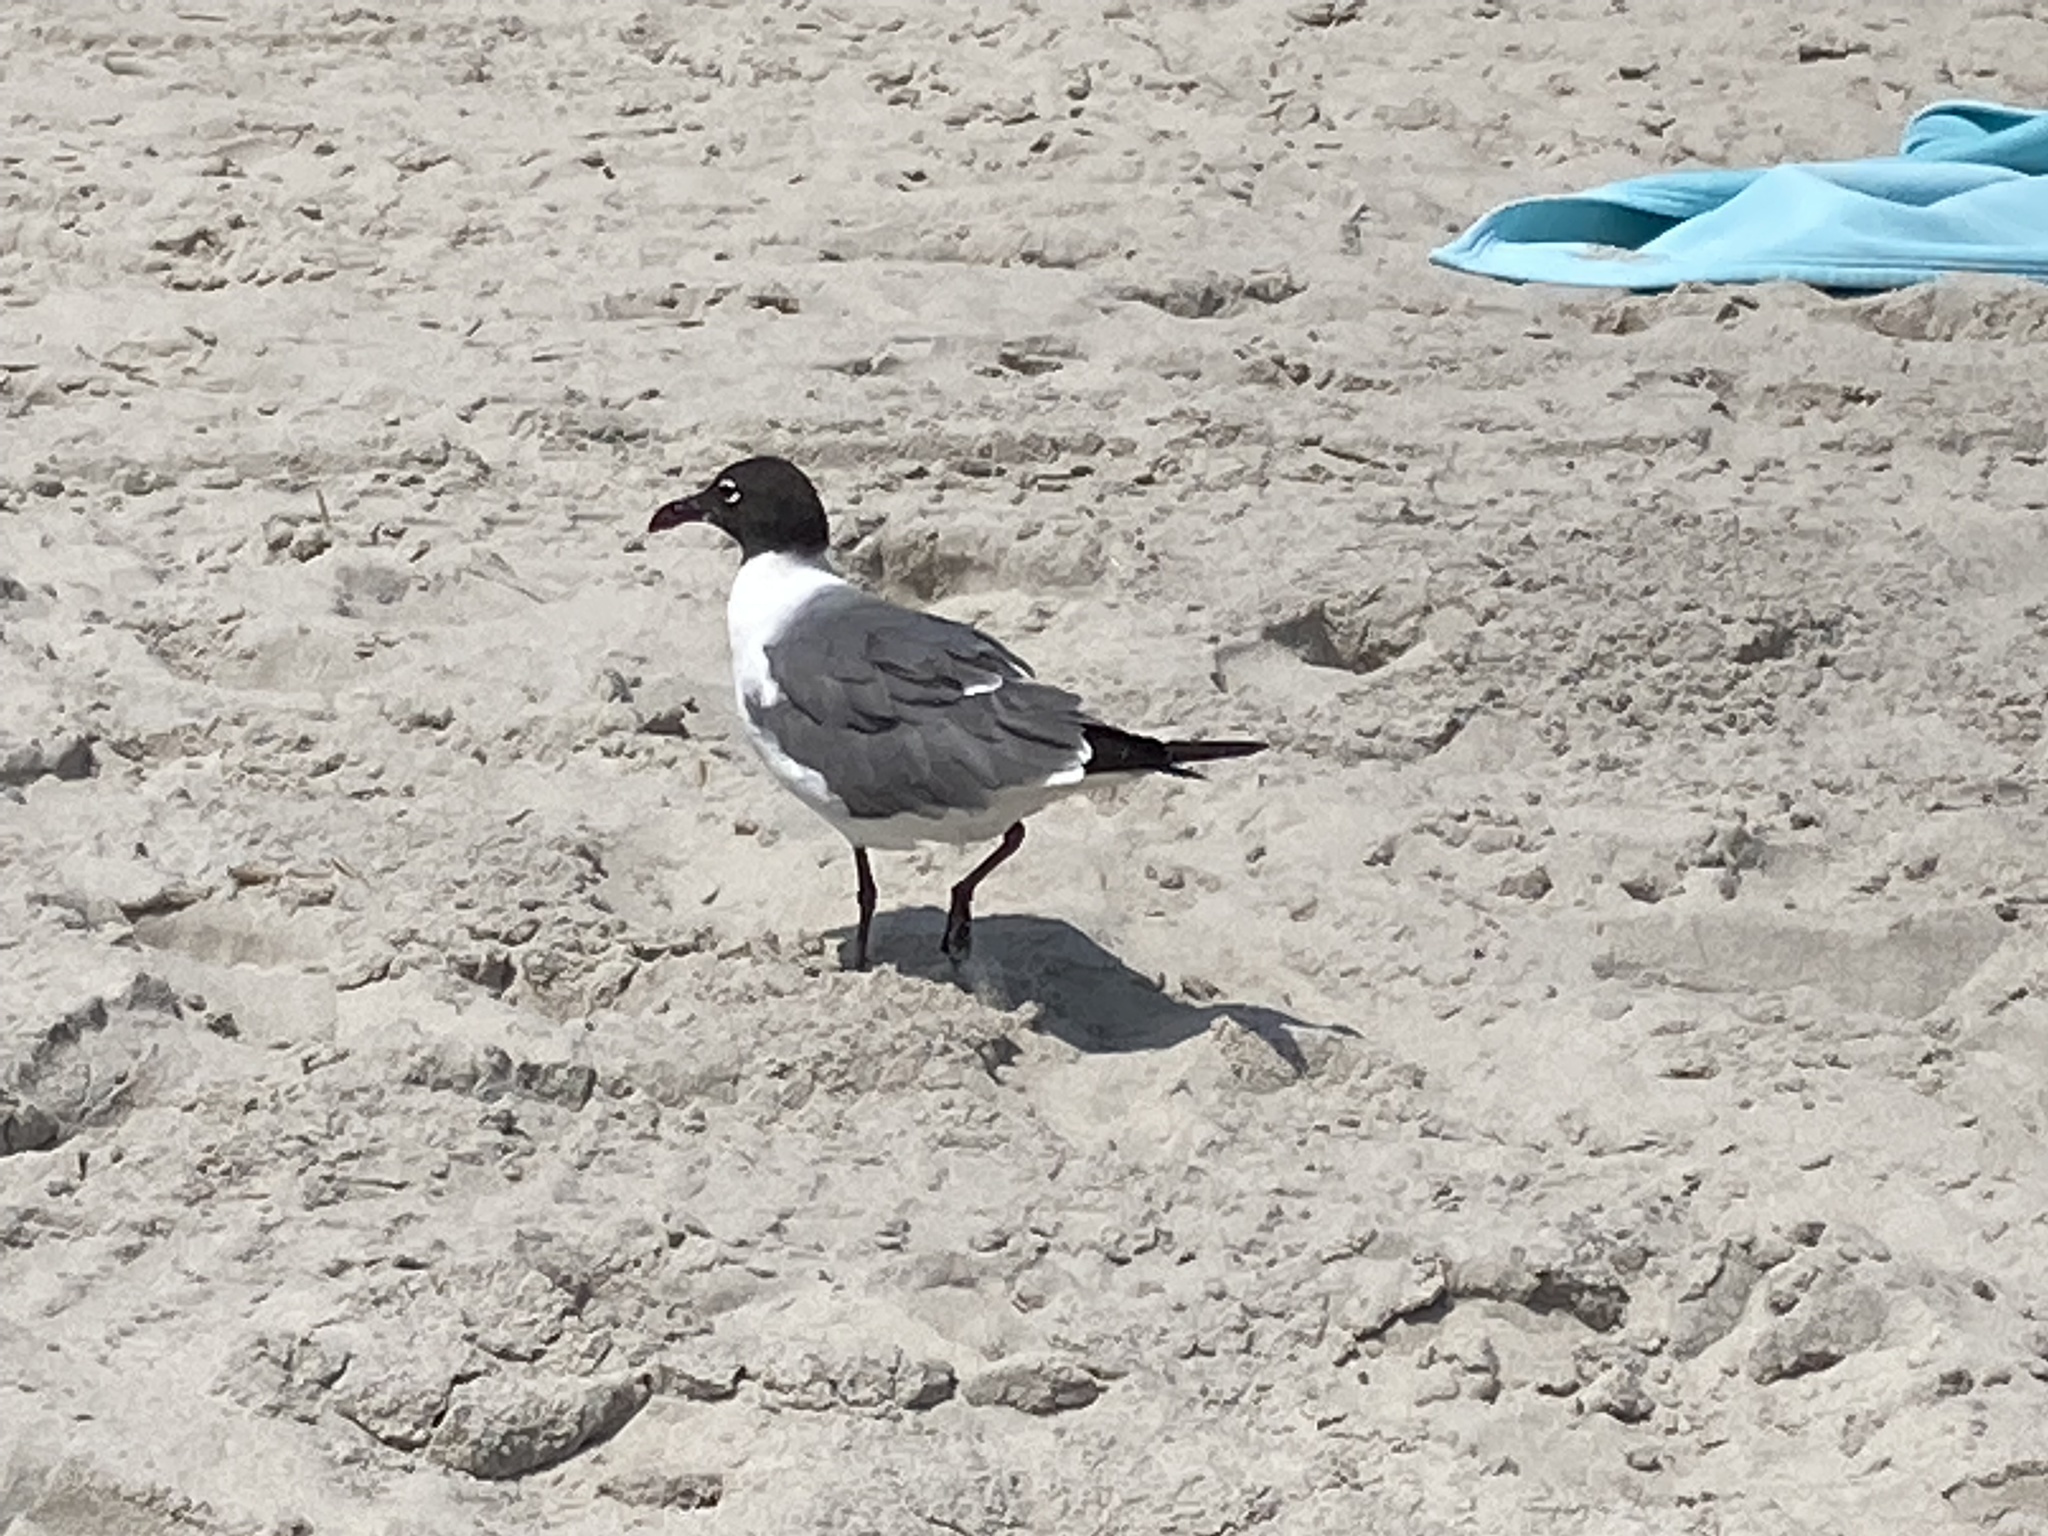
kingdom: Animalia
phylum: Chordata
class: Aves
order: Charadriiformes
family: Laridae
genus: Leucophaeus
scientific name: Leucophaeus atricilla
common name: Laughing gull
